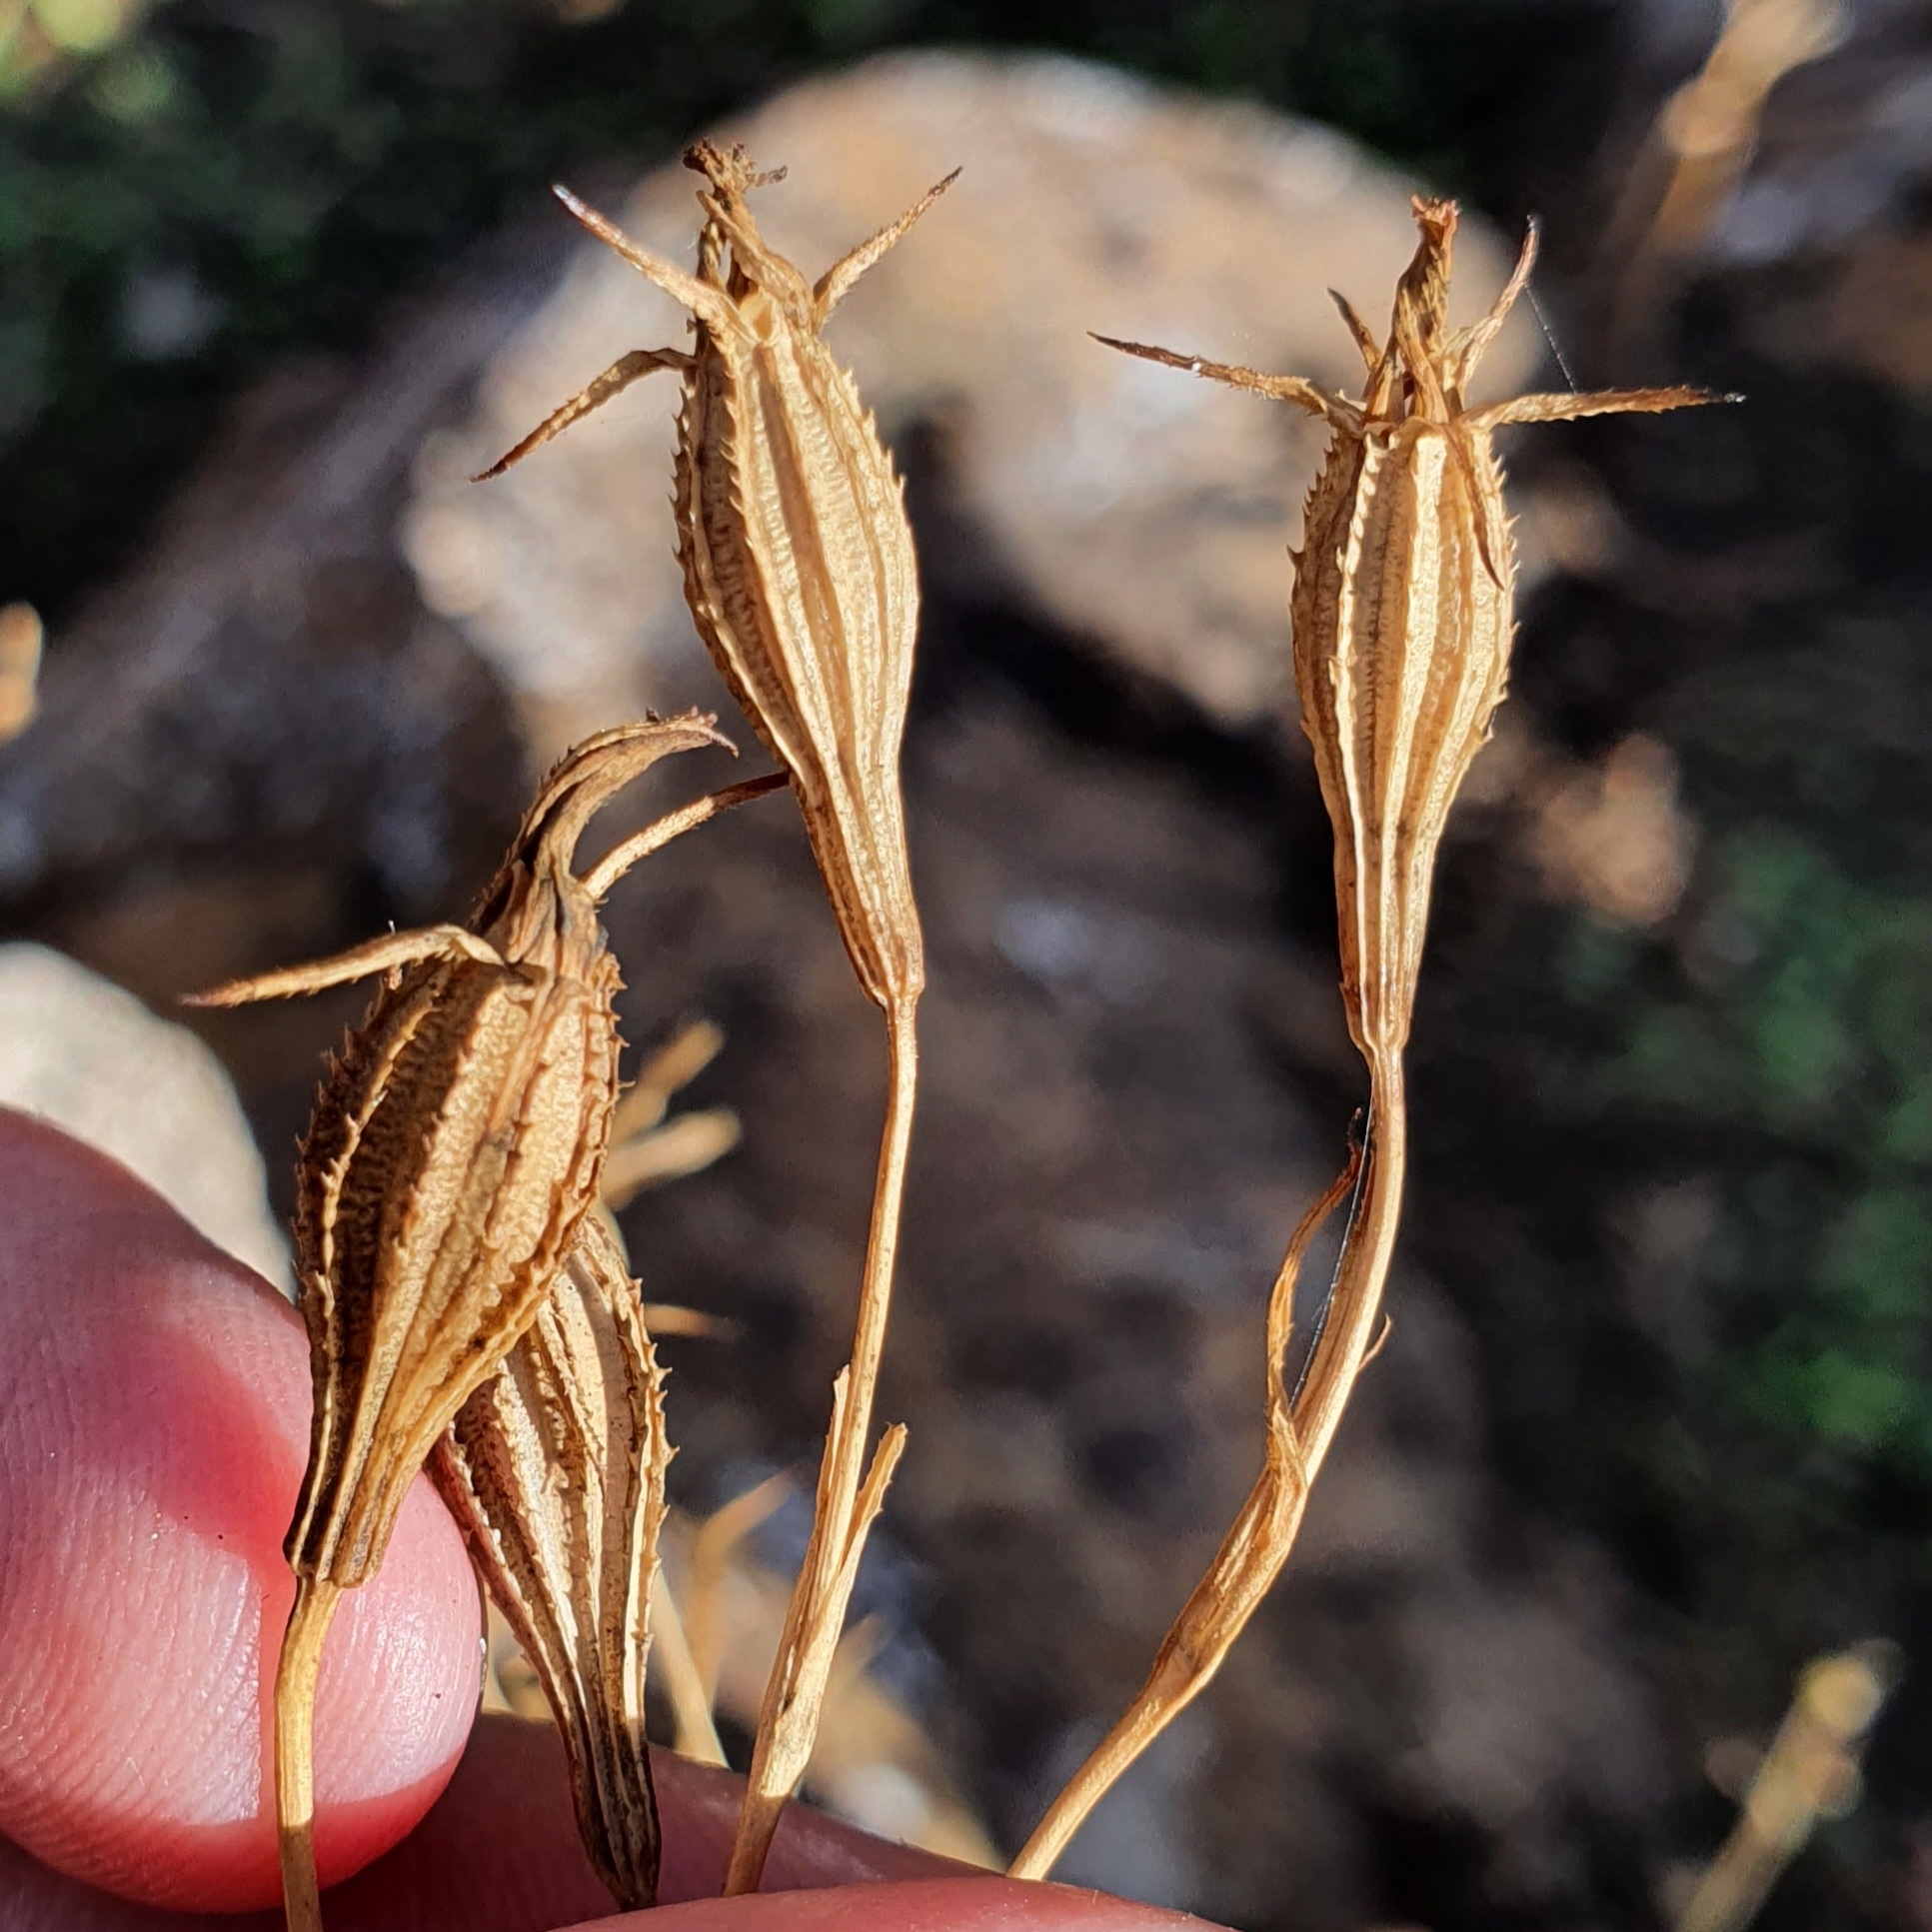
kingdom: Plantae
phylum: Tracheophyta
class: Magnoliopsida
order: Caryophyllales
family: Caryophyllaceae
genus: Eudianthe
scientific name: Eudianthe coeli-rosa
